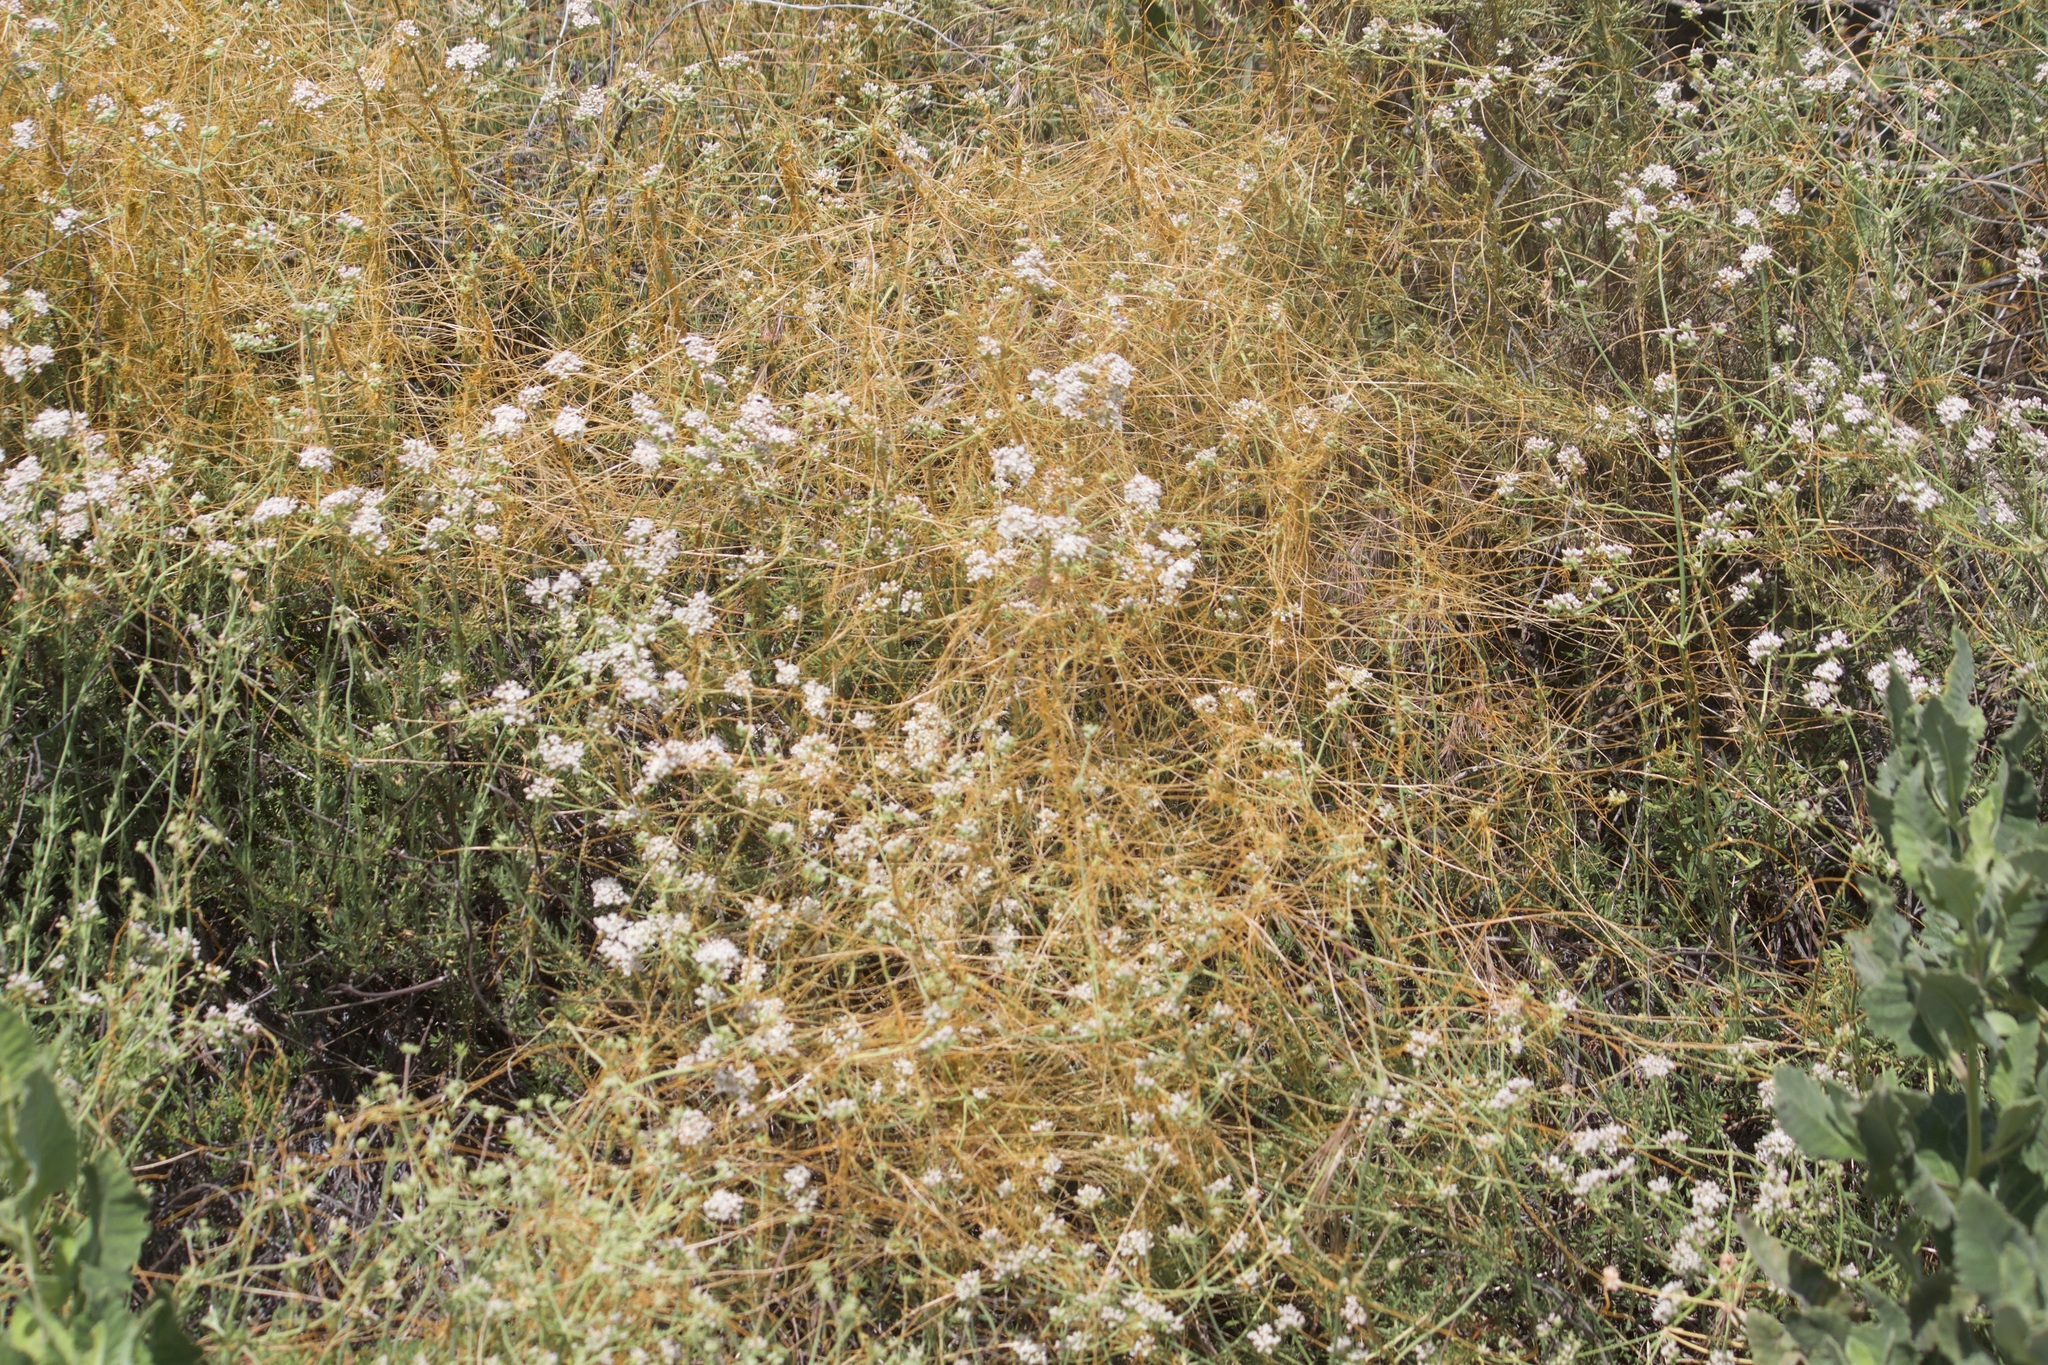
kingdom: Plantae
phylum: Tracheophyta
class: Magnoliopsida
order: Solanales
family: Convolvulaceae
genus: Cuscuta
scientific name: Cuscuta californica
